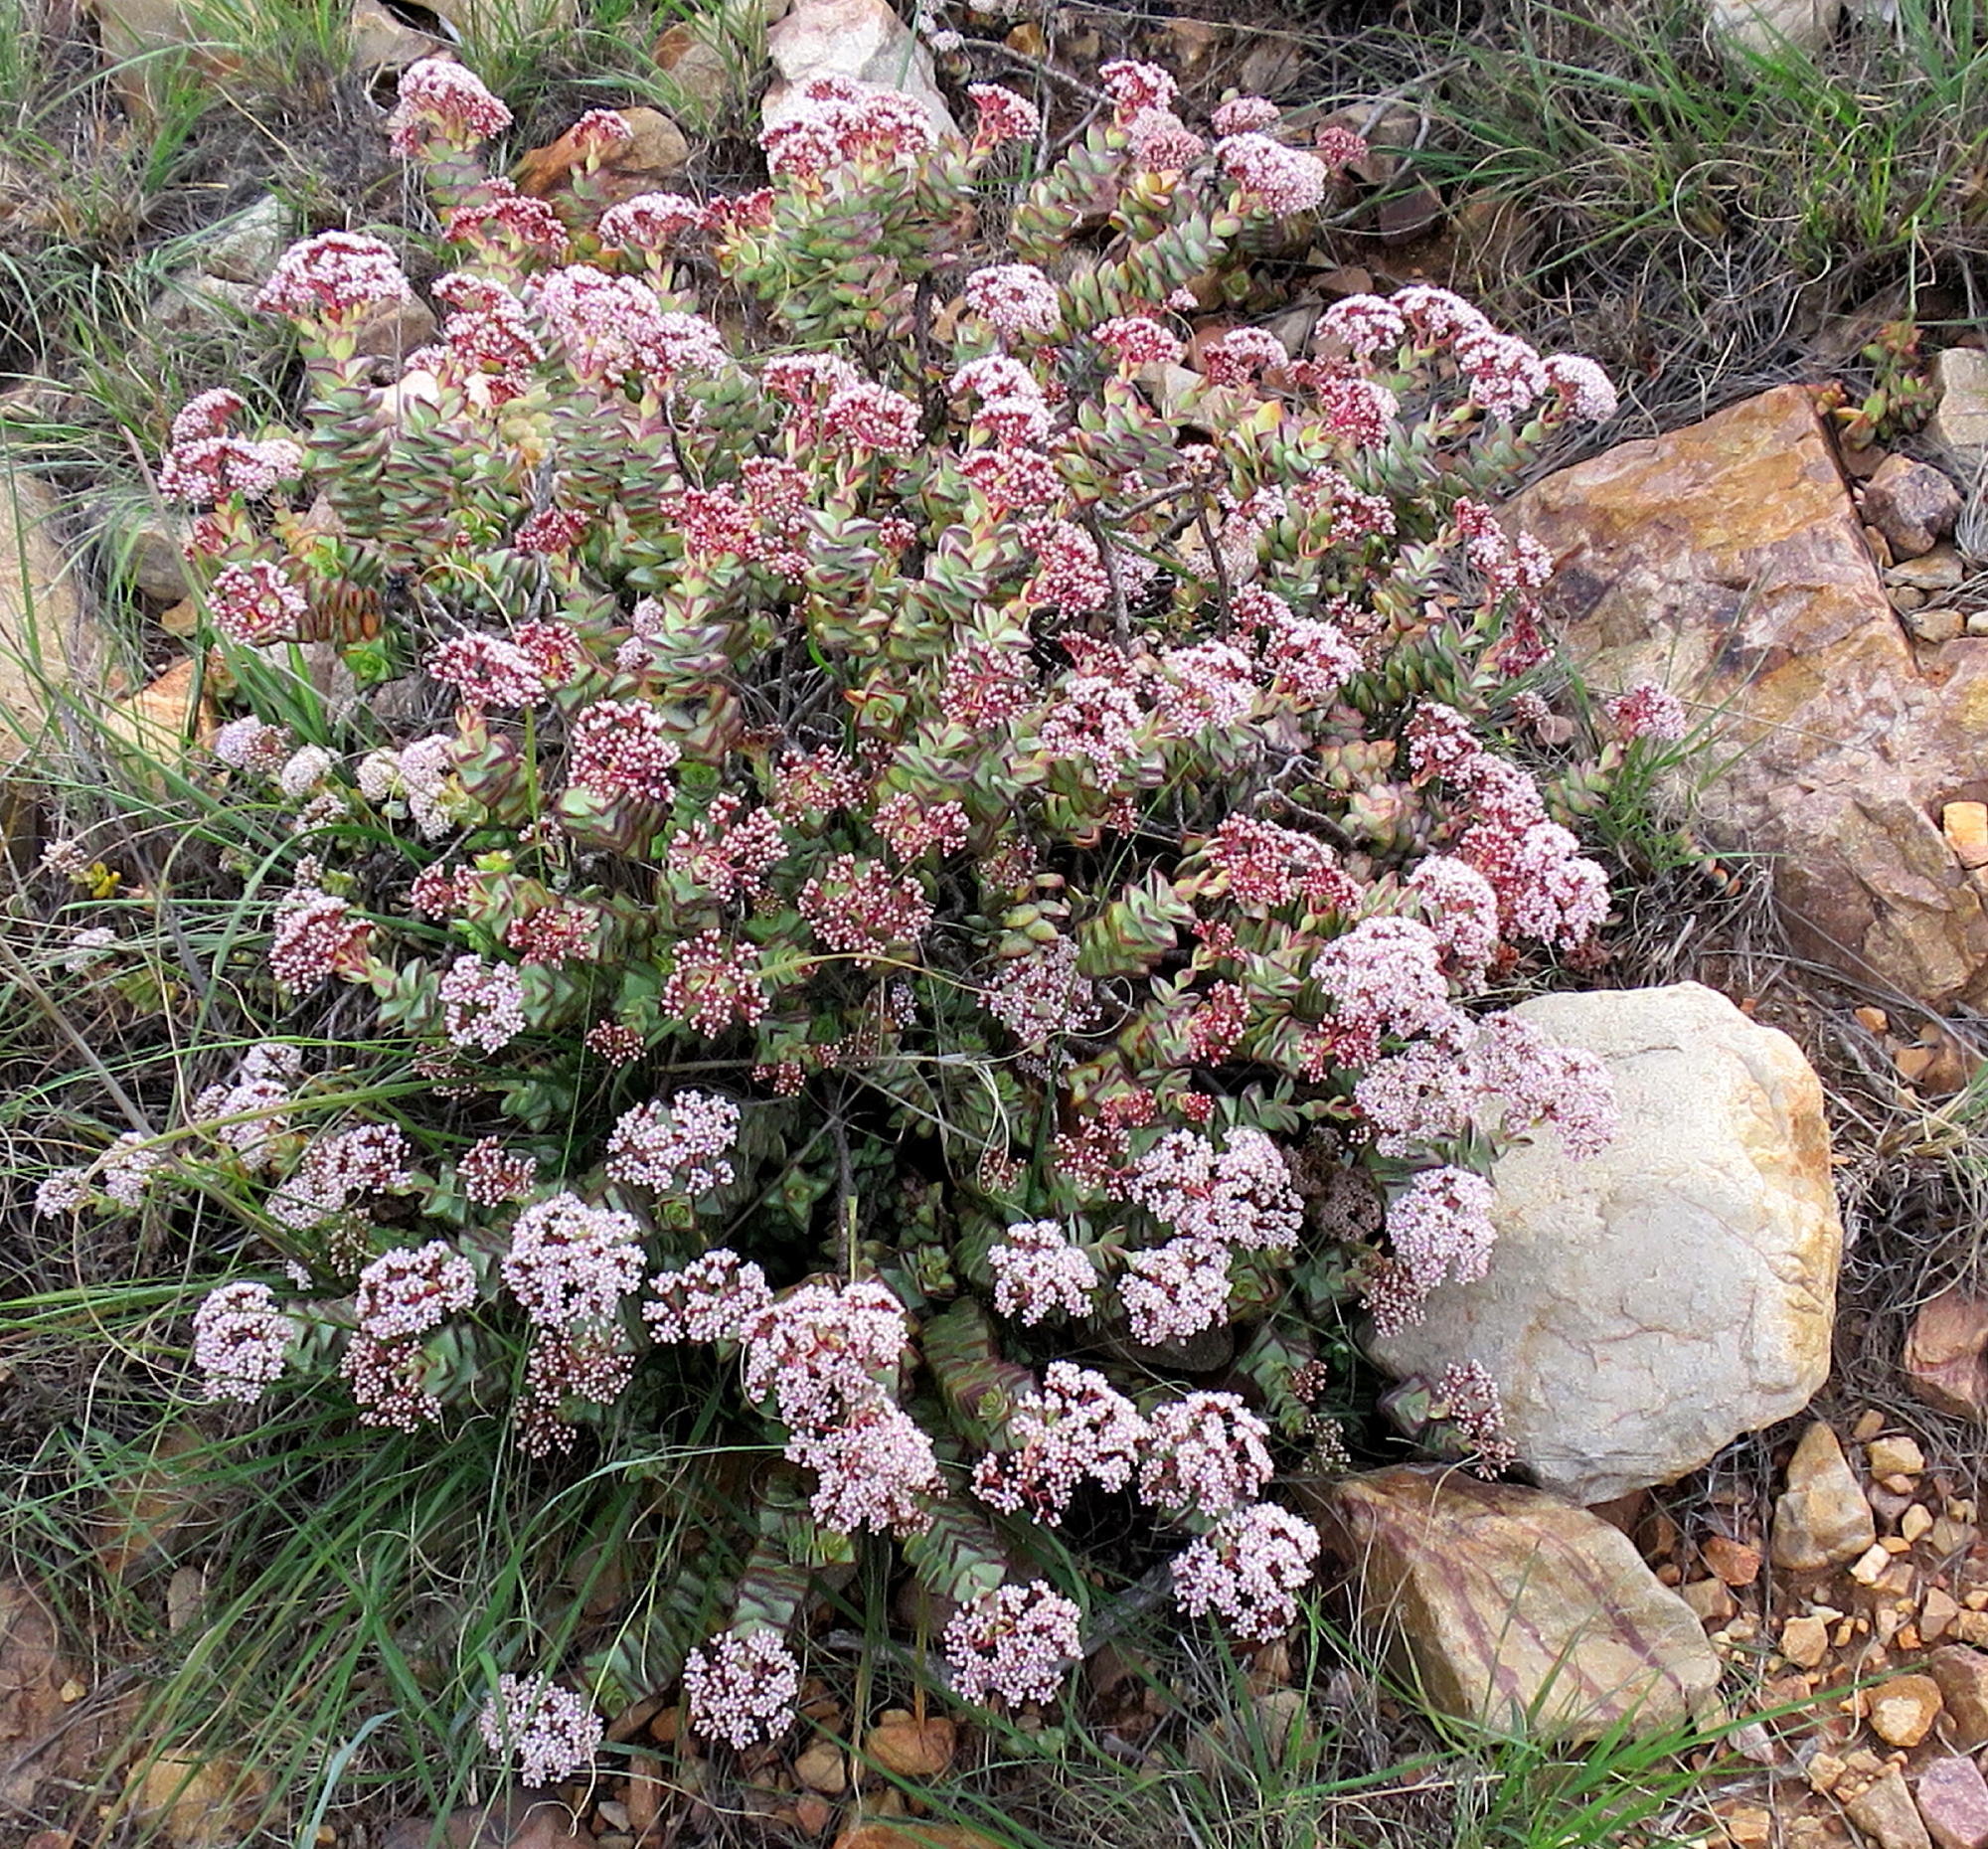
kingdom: Plantae
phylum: Tracheophyta
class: Magnoliopsida
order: Saxifragales
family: Crassulaceae
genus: Crassula
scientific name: Crassula rupestris
